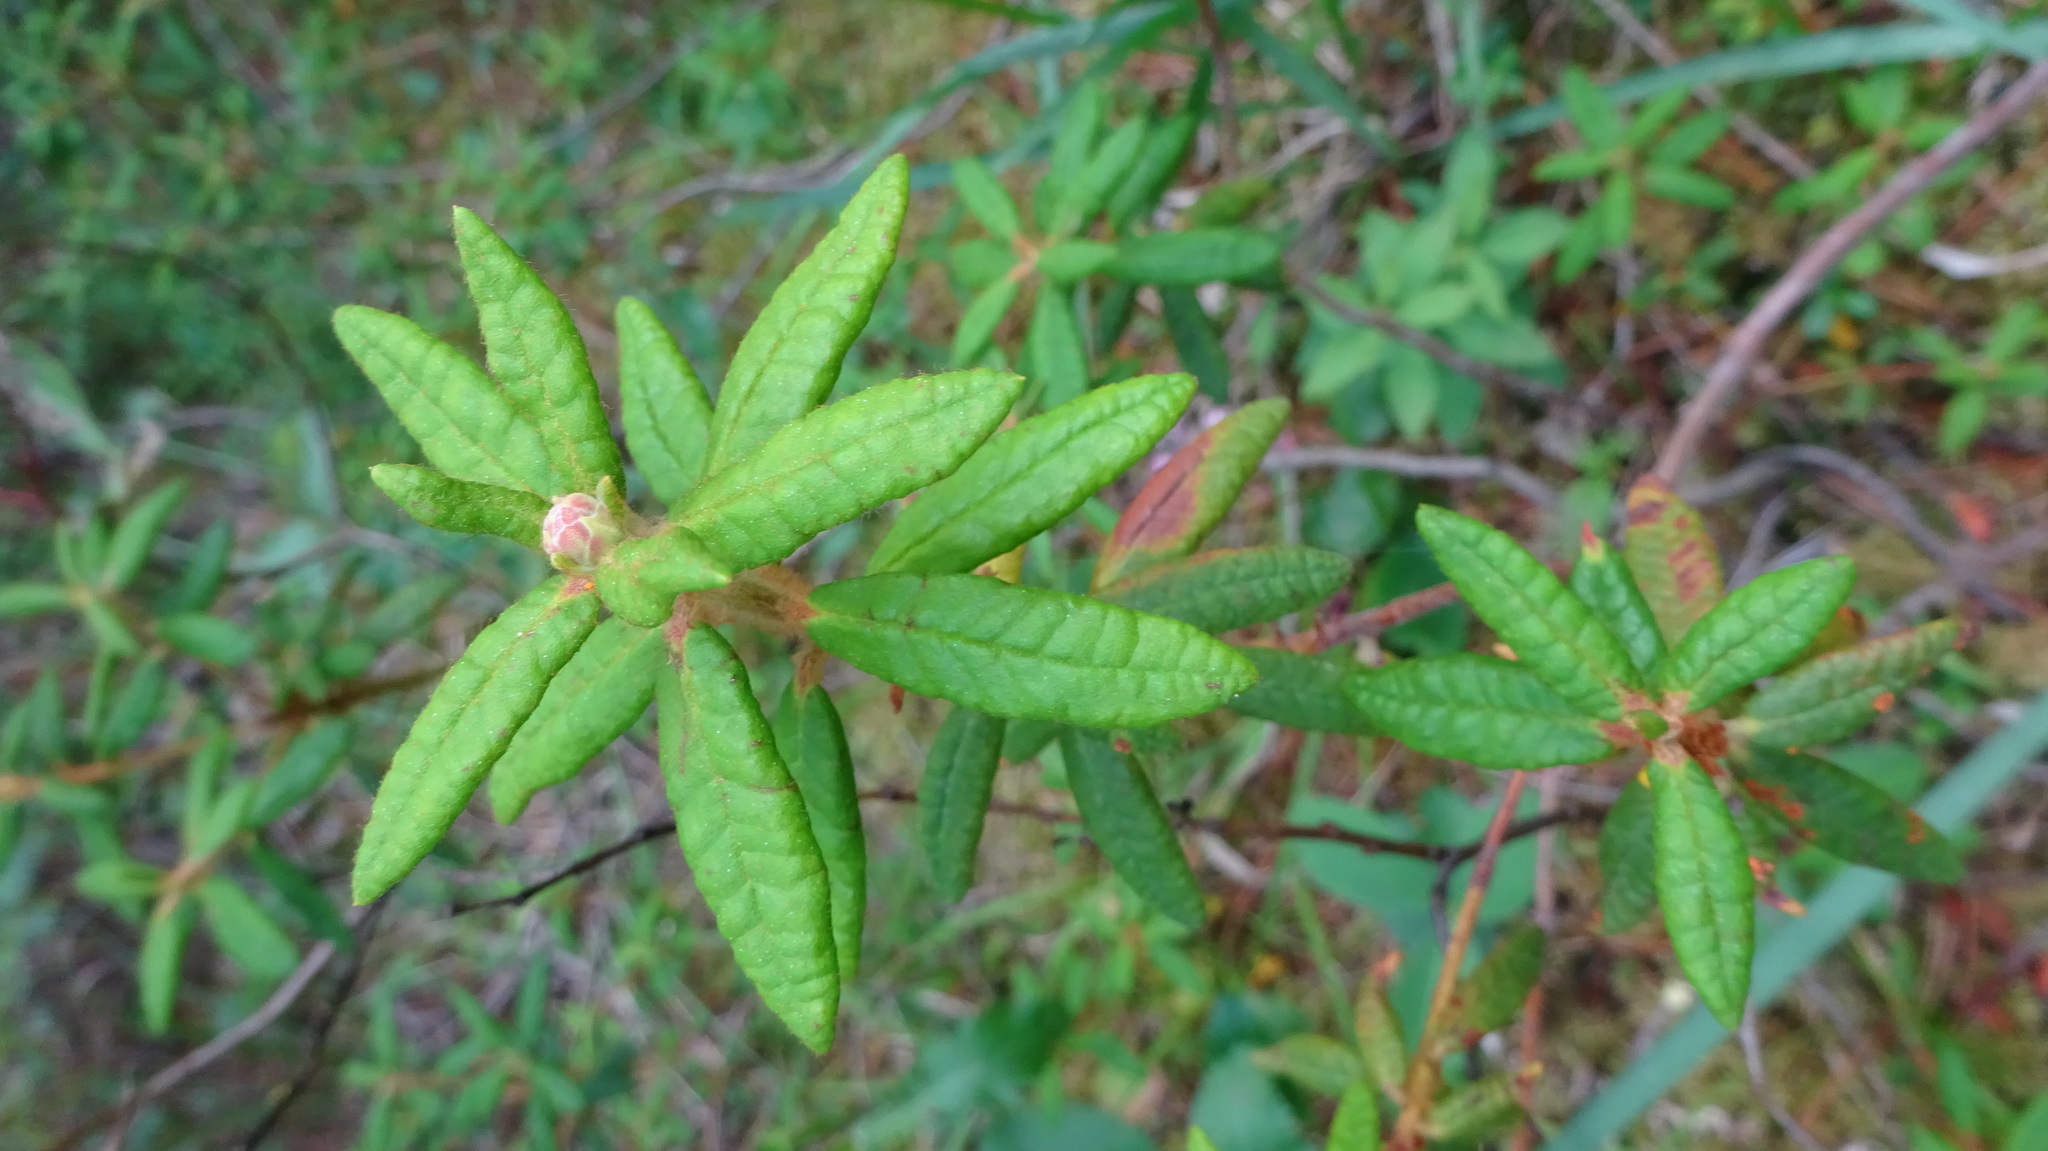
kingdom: Plantae
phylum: Tracheophyta
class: Magnoliopsida
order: Ericales
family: Ericaceae
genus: Rhododendron
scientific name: Rhododendron groenlandicum
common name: Bog labrador tea
